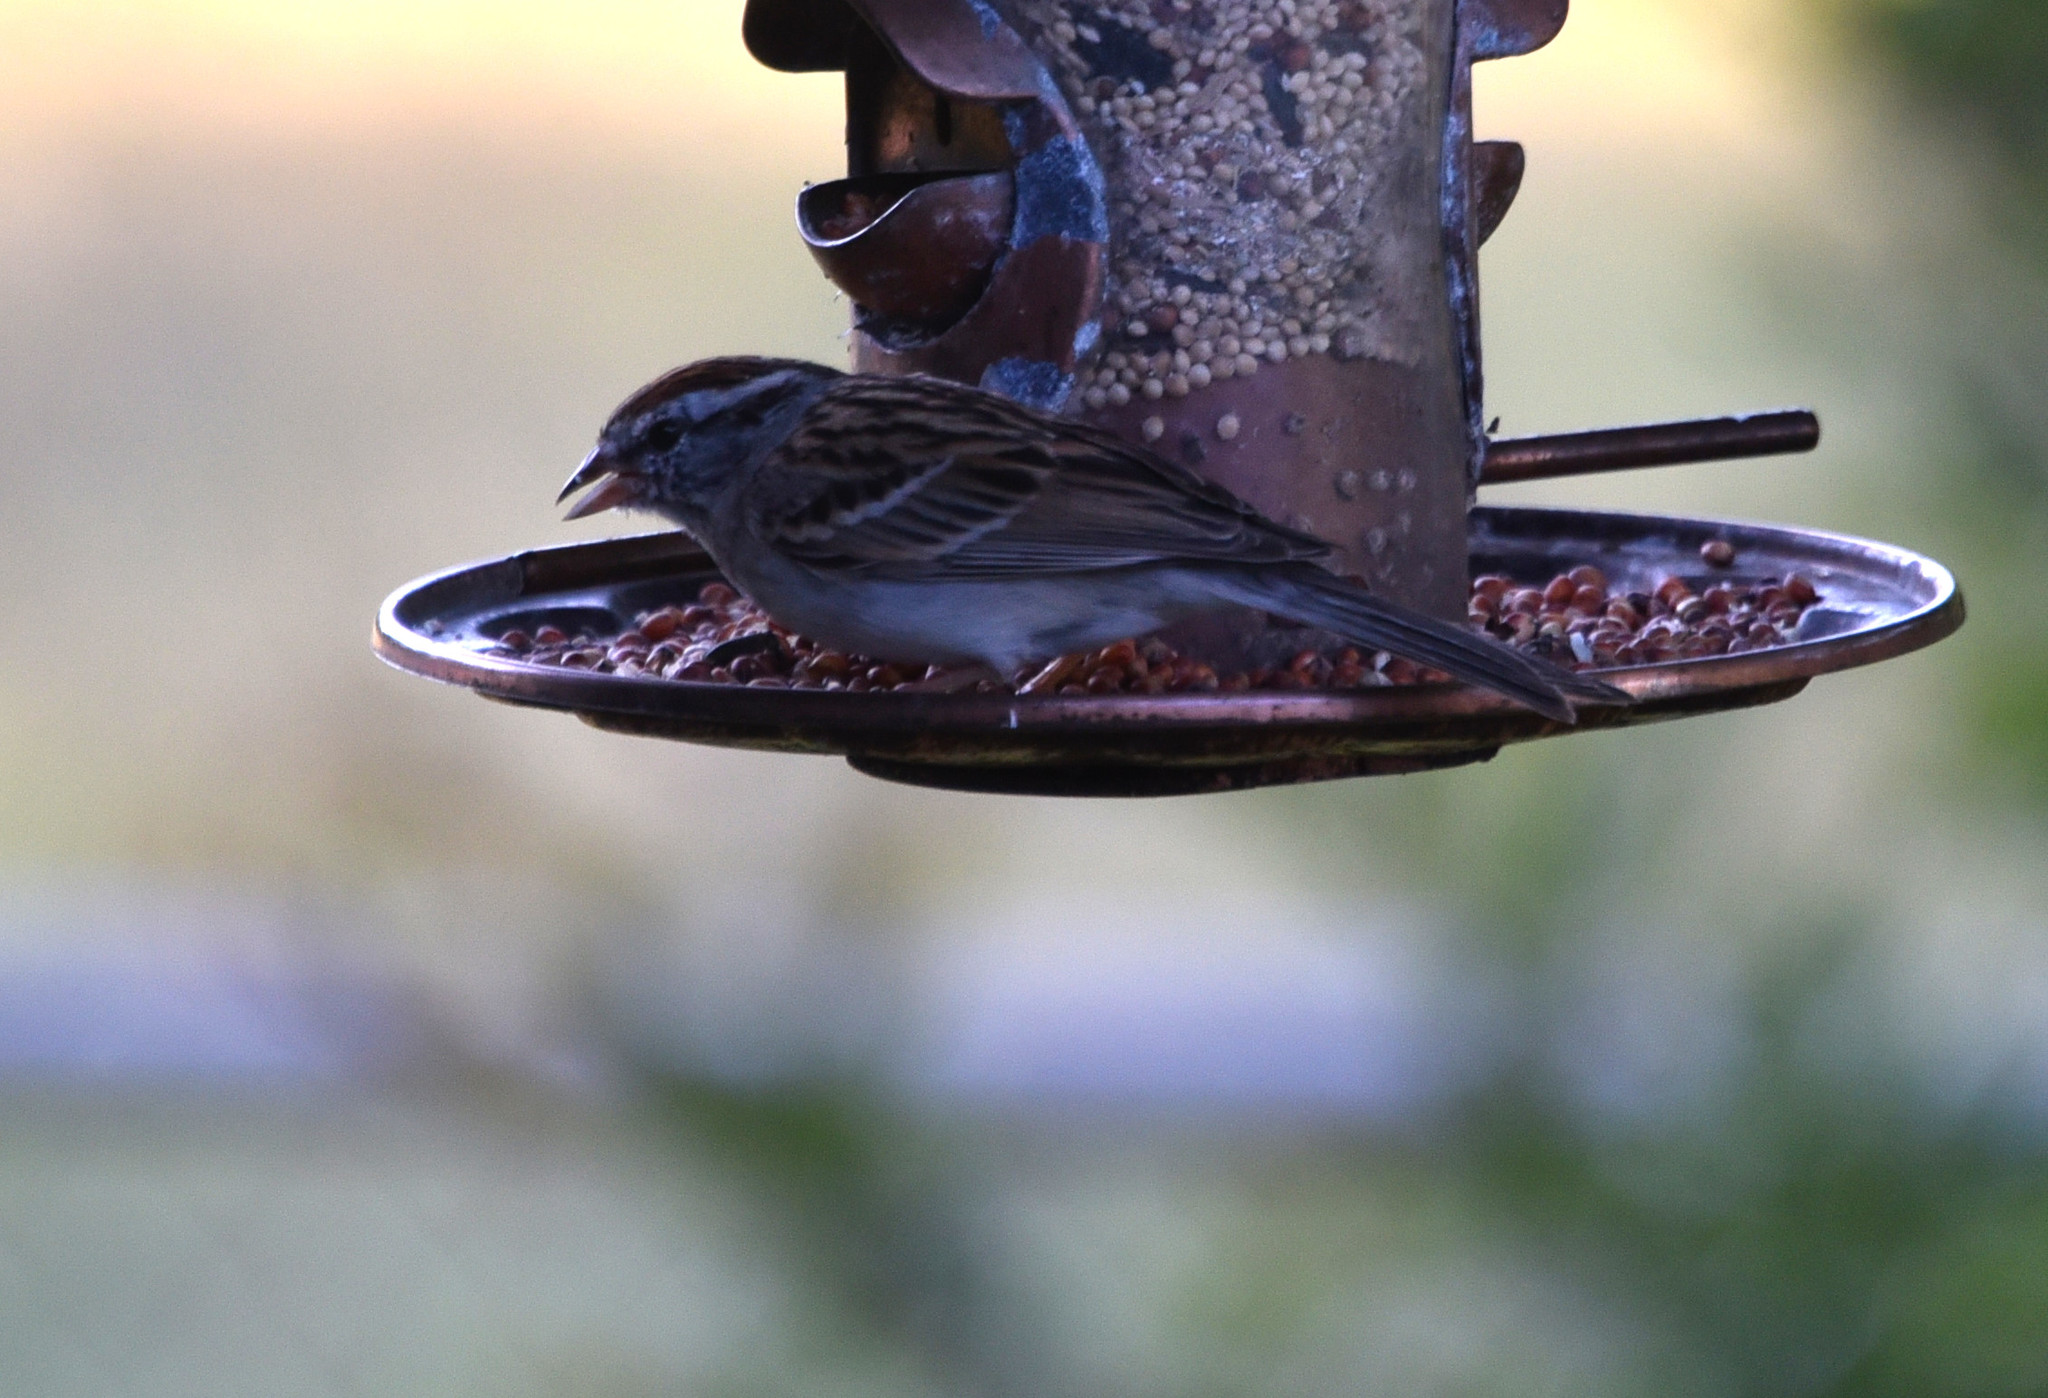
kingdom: Animalia
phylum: Chordata
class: Aves
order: Passeriformes
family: Passerellidae
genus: Spizella
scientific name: Spizella passerina
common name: Chipping sparrow
